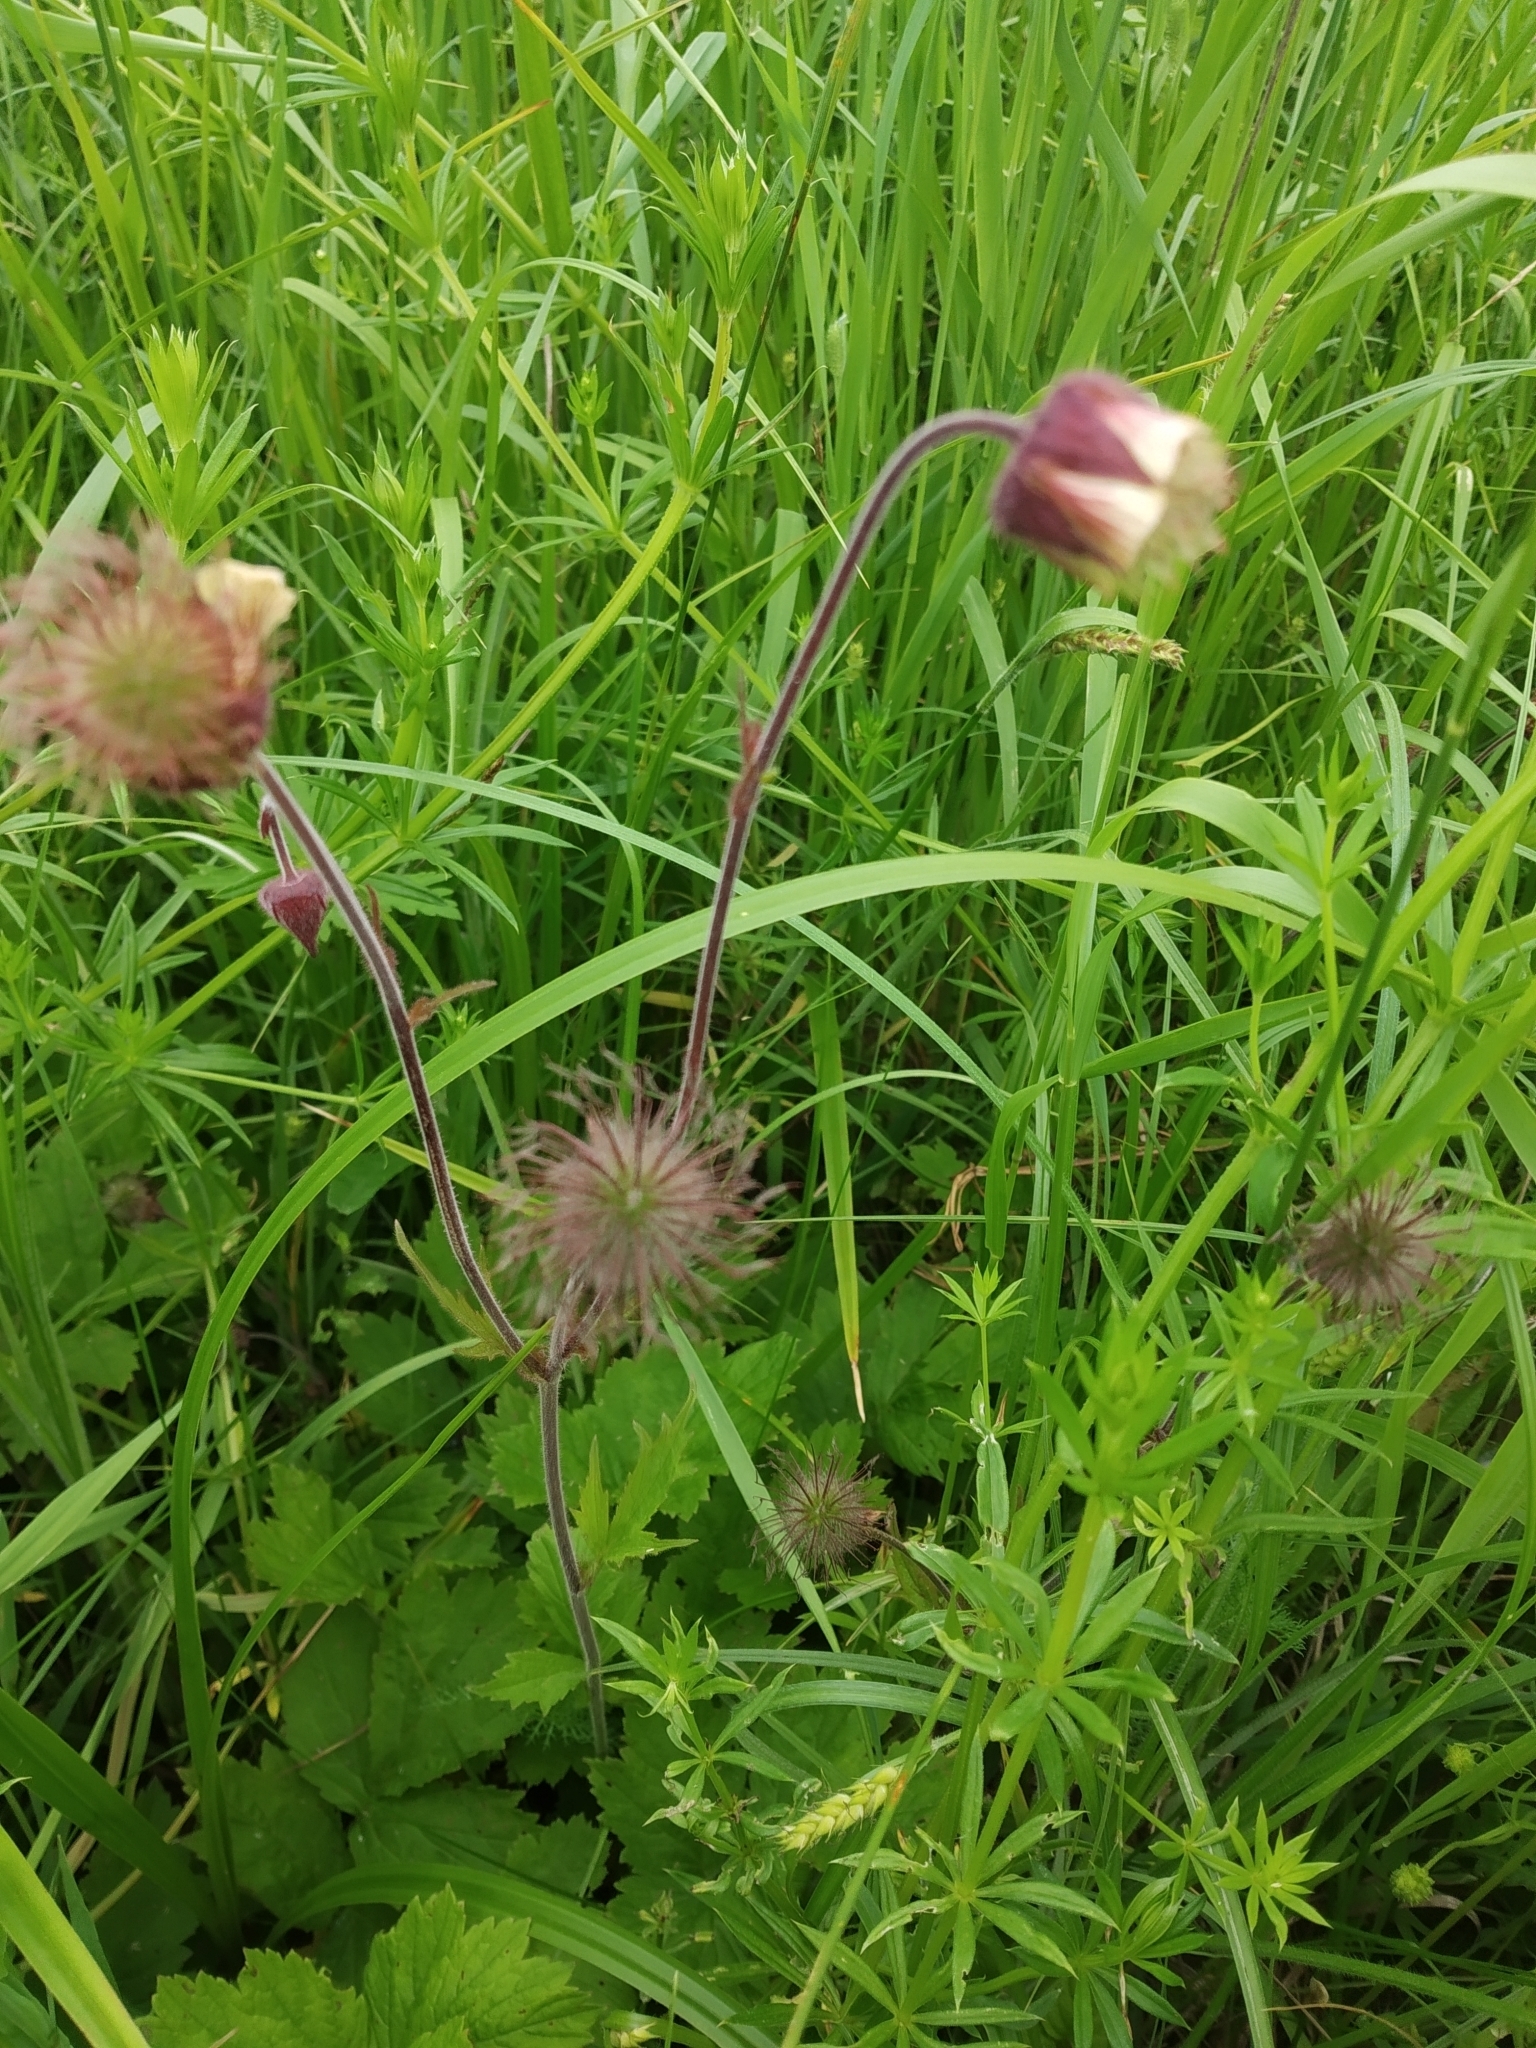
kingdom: Plantae
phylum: Tracheophyta
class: Magnoliopsida
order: Rosales
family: Rosaceae
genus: Geum
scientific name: Geum rivale
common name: Water avens
